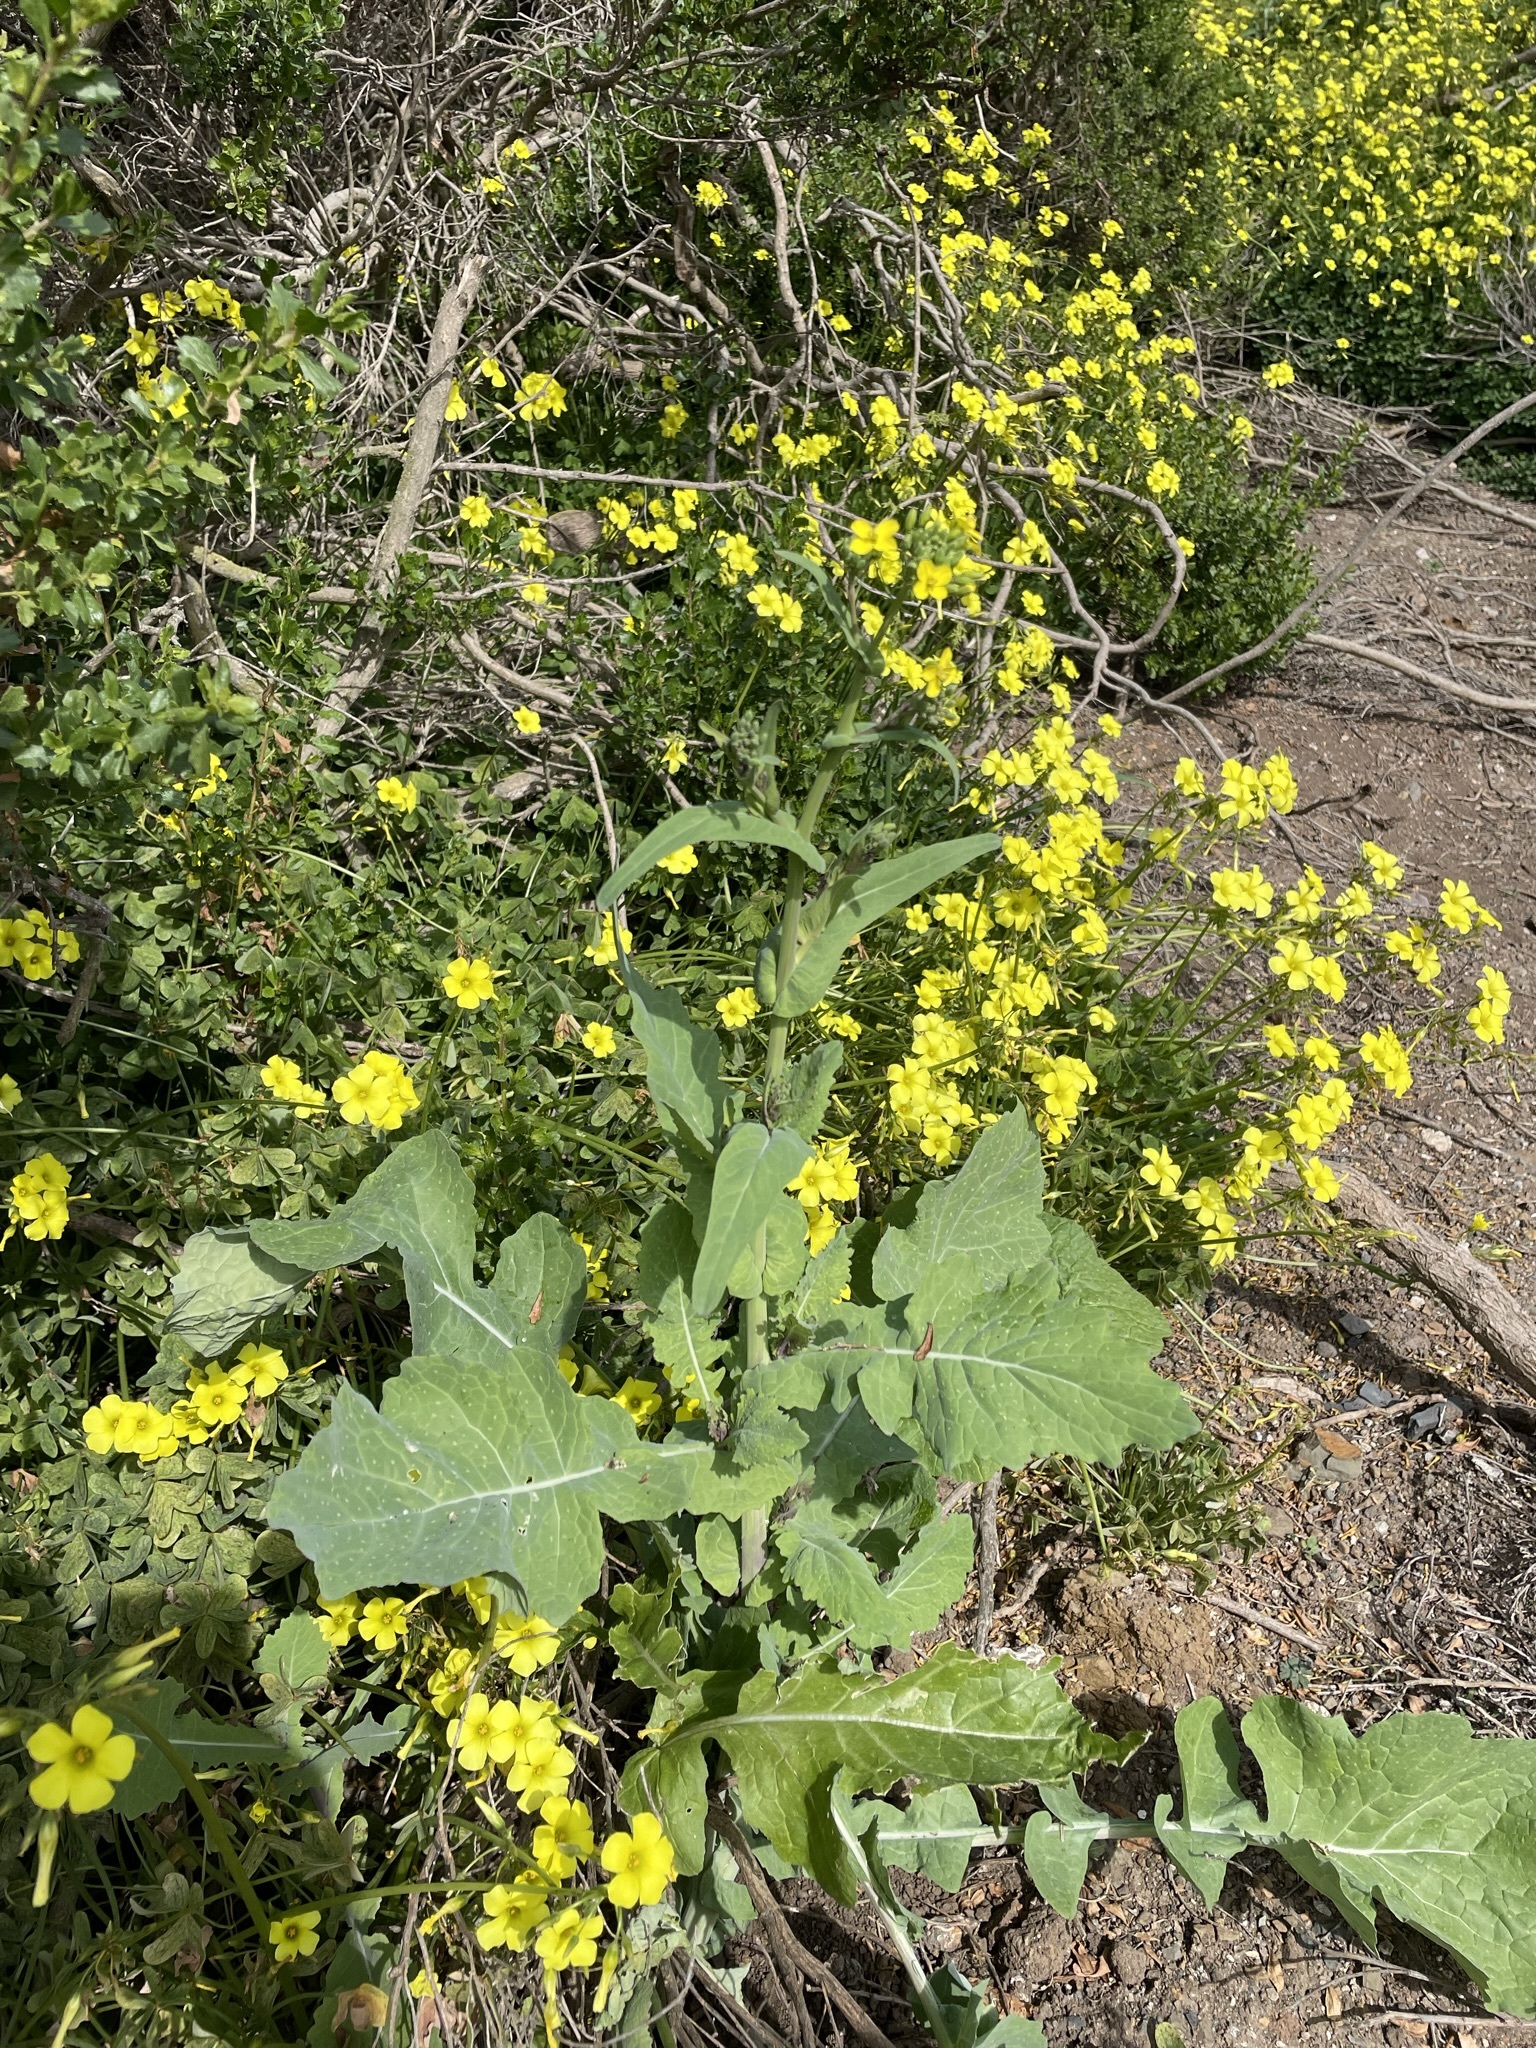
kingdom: Plantae
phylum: Tracheophyta
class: Magnoliopsida
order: Brassicales
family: Brassicaceae
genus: Brassica
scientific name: Brassica rapa
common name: Field mustard
